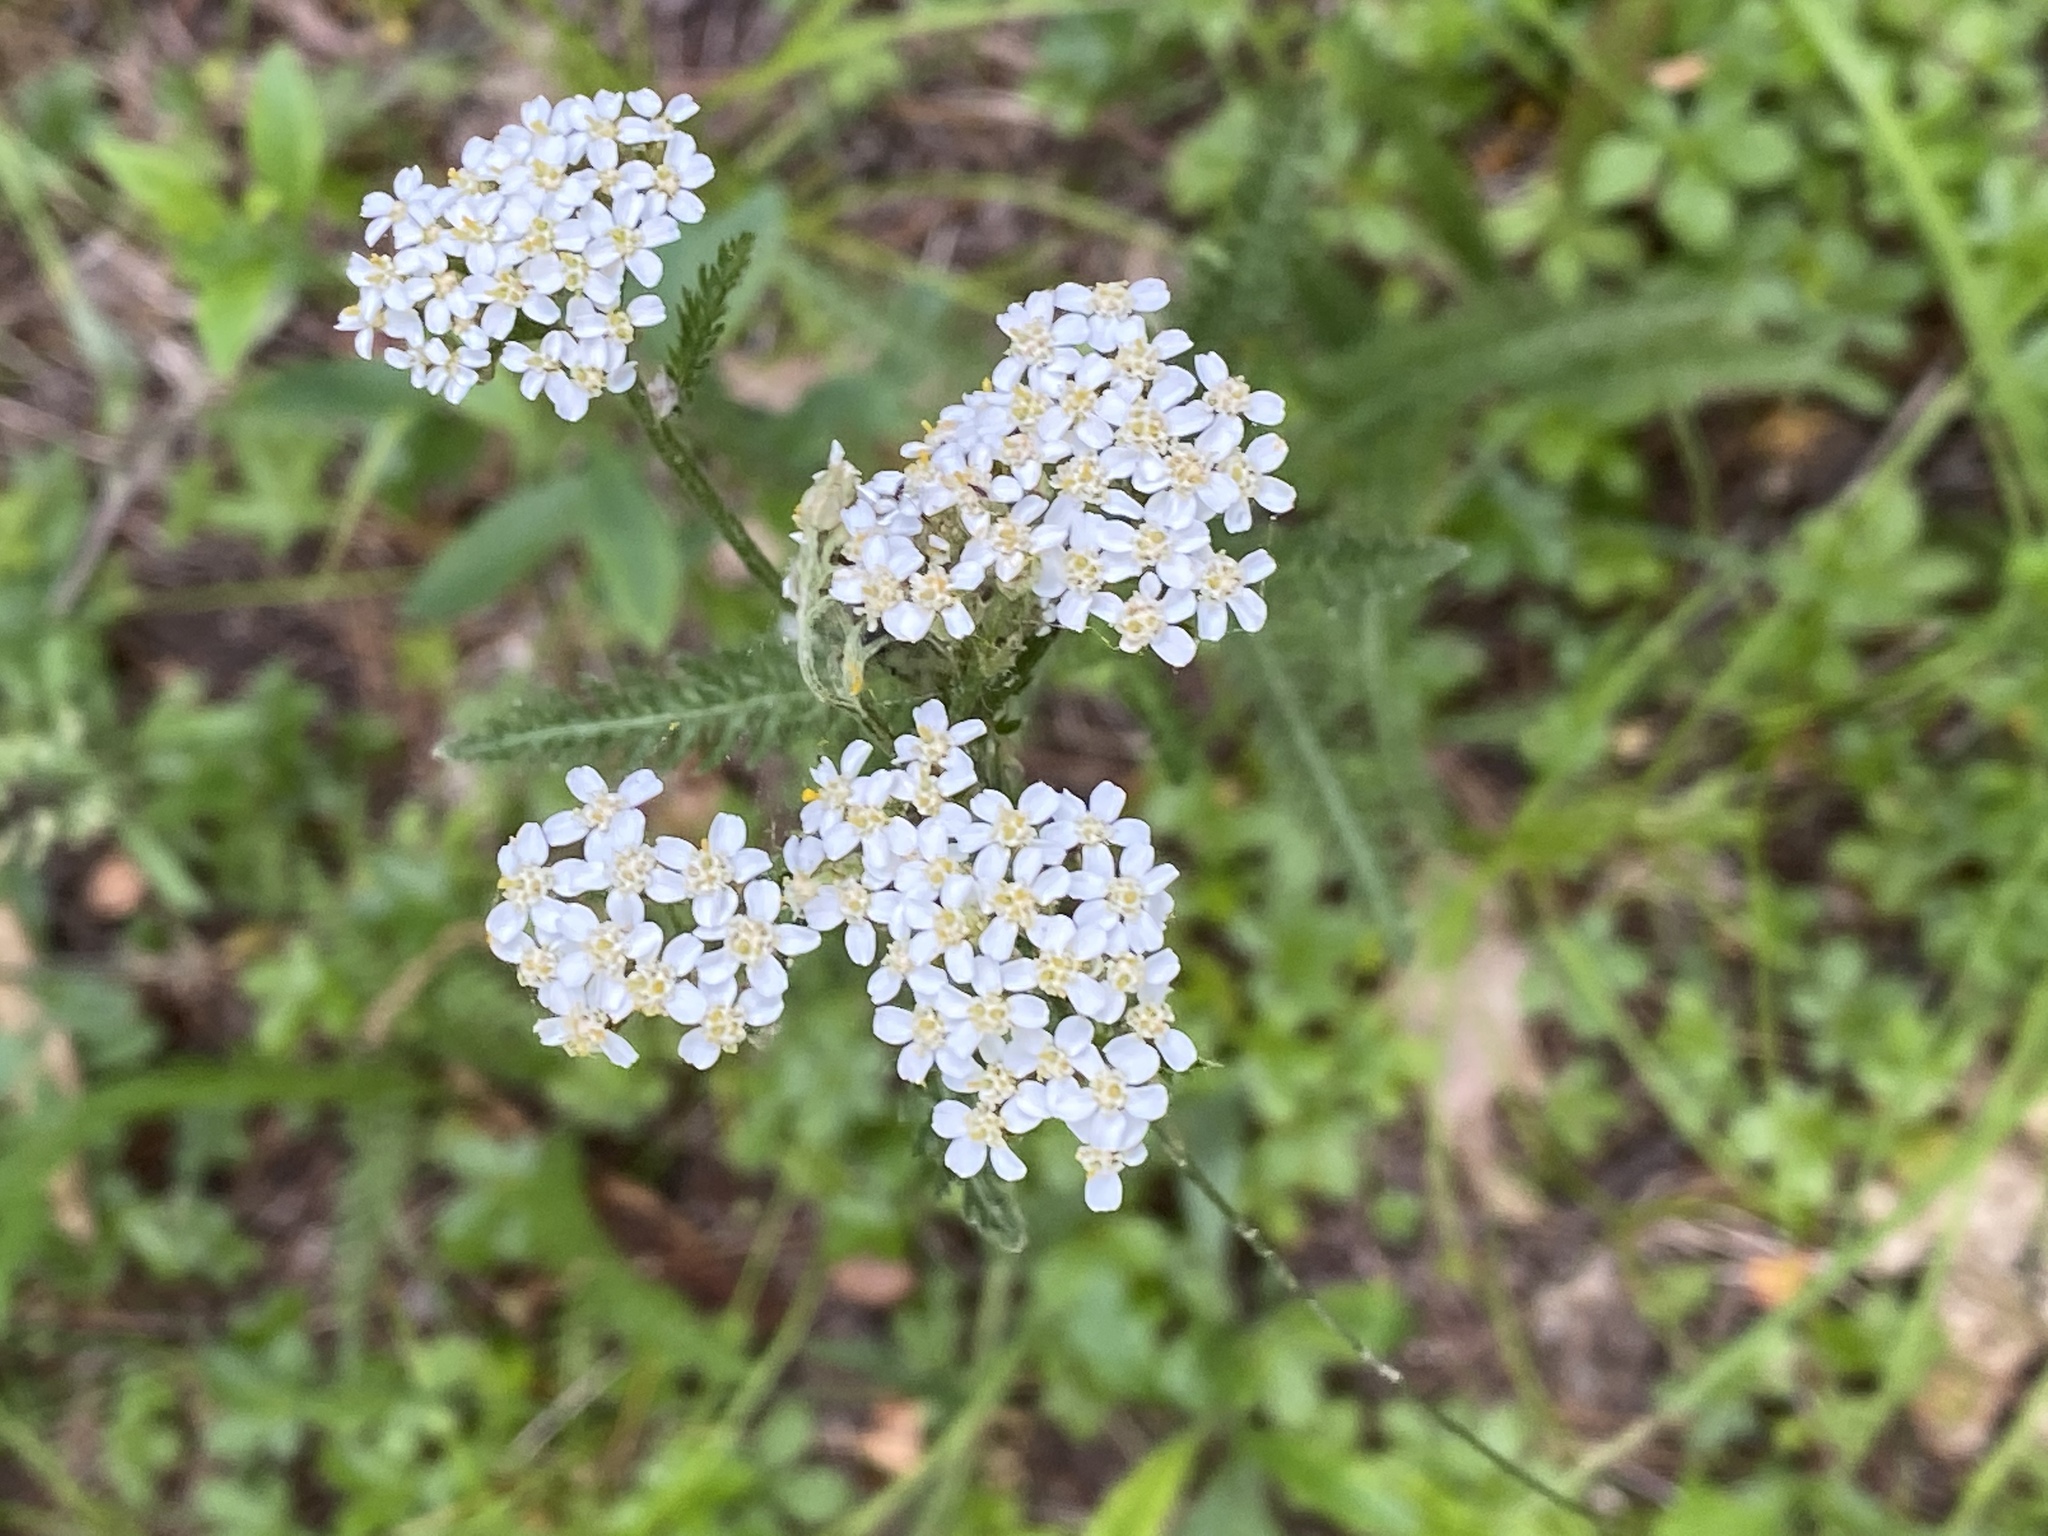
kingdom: Plantae
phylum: Tracheophyta
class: Magnoliopsida
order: Asterales
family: Asteraceae
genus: Achillea
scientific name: Achillea millefolium
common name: Yarrow
